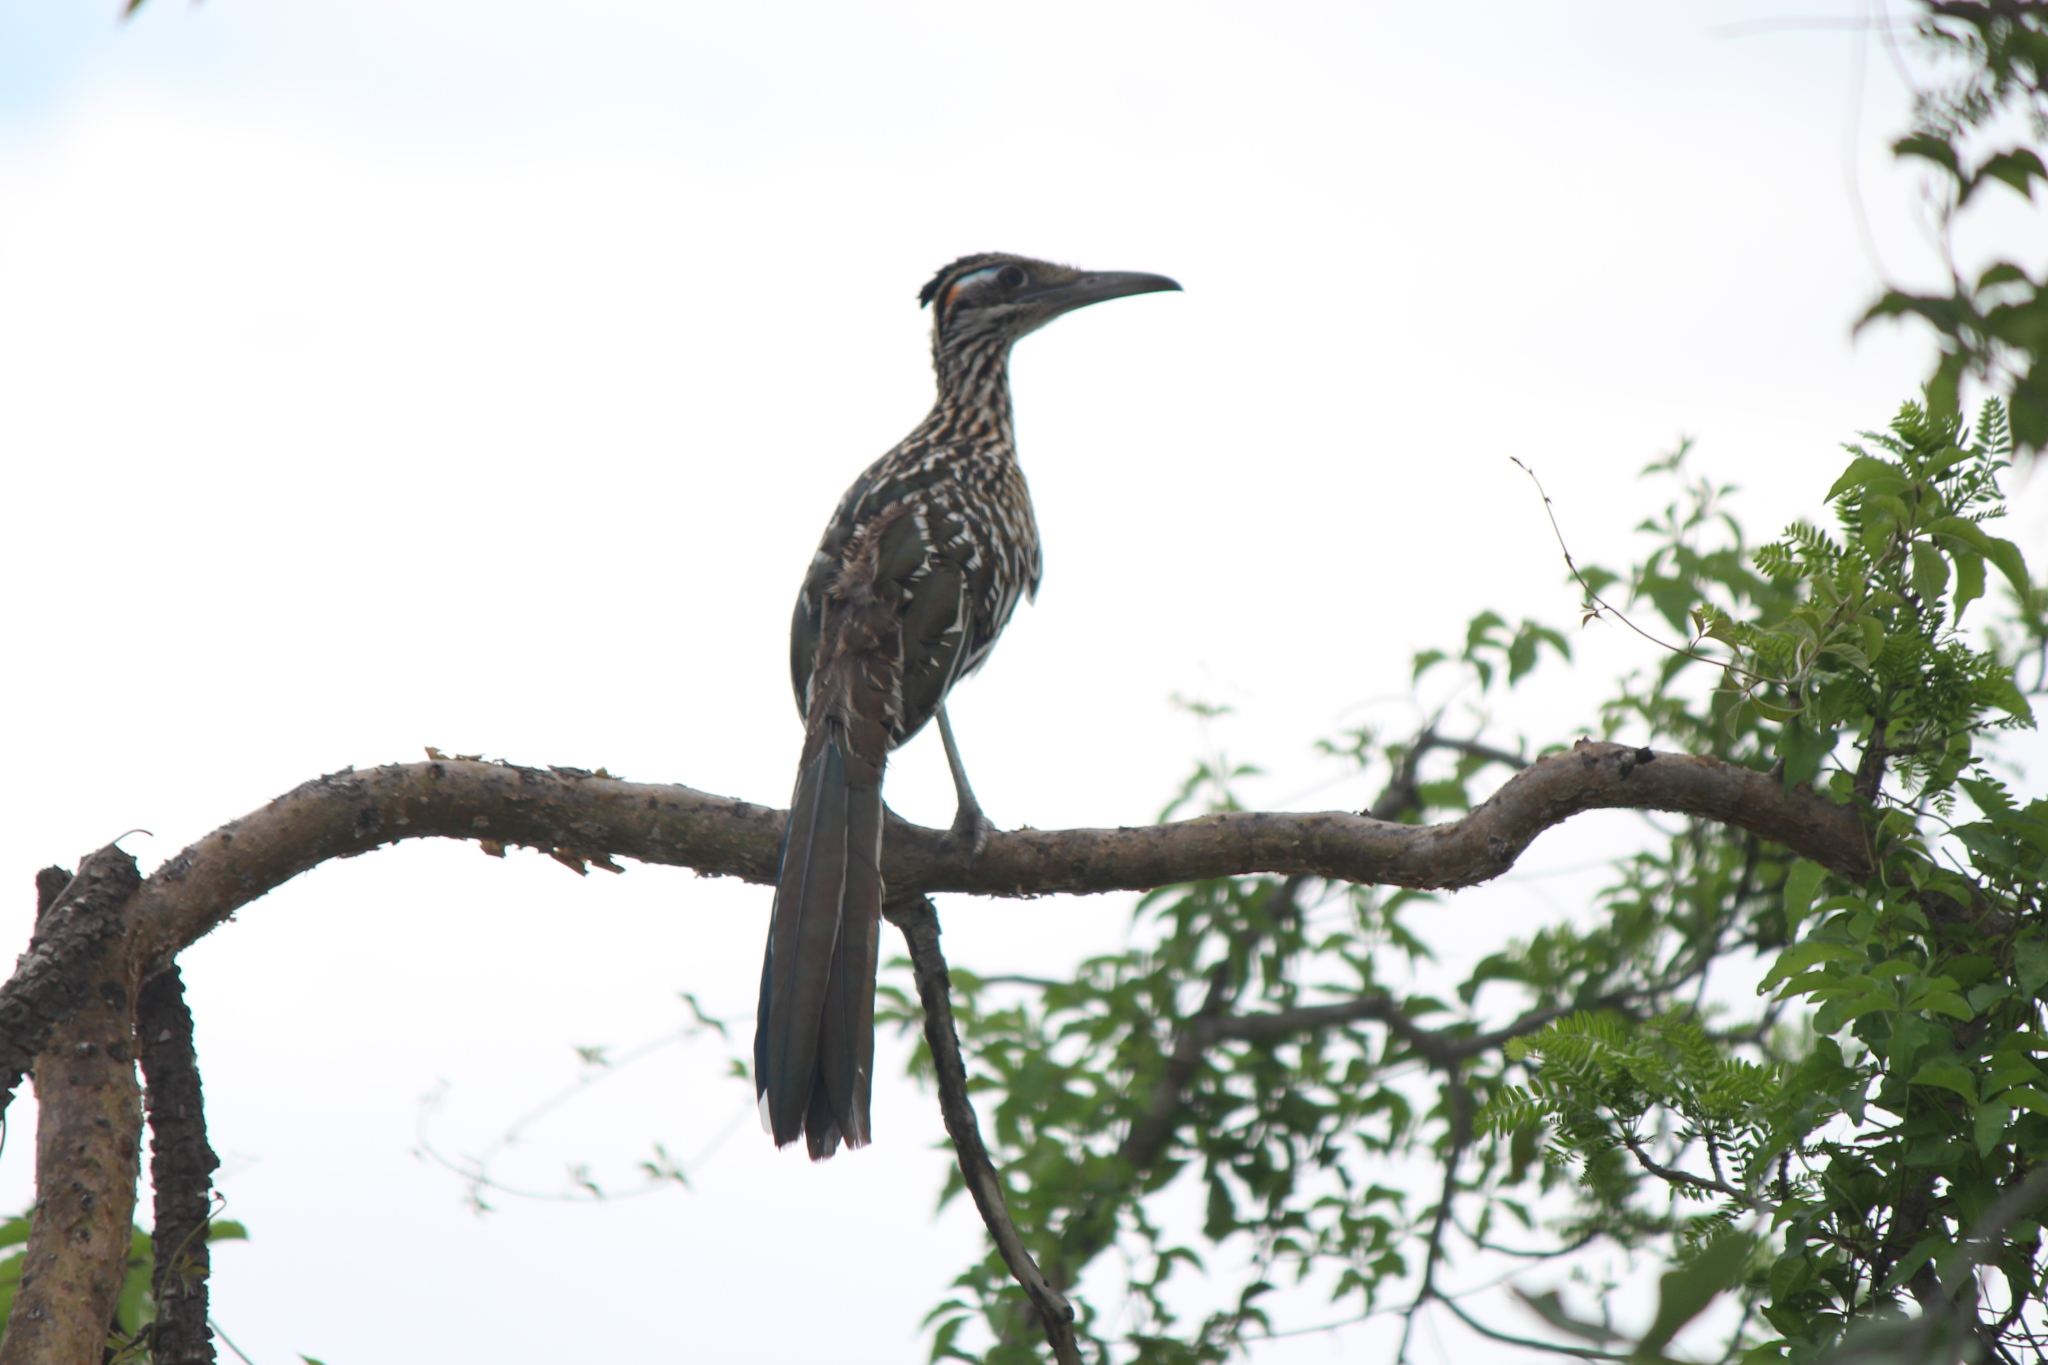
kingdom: Animalia
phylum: Chordata
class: Aves
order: Cuculiformes
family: Cuculidae
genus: Geococcyx
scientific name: Geococcyx californianus
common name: Greater roadrunner
